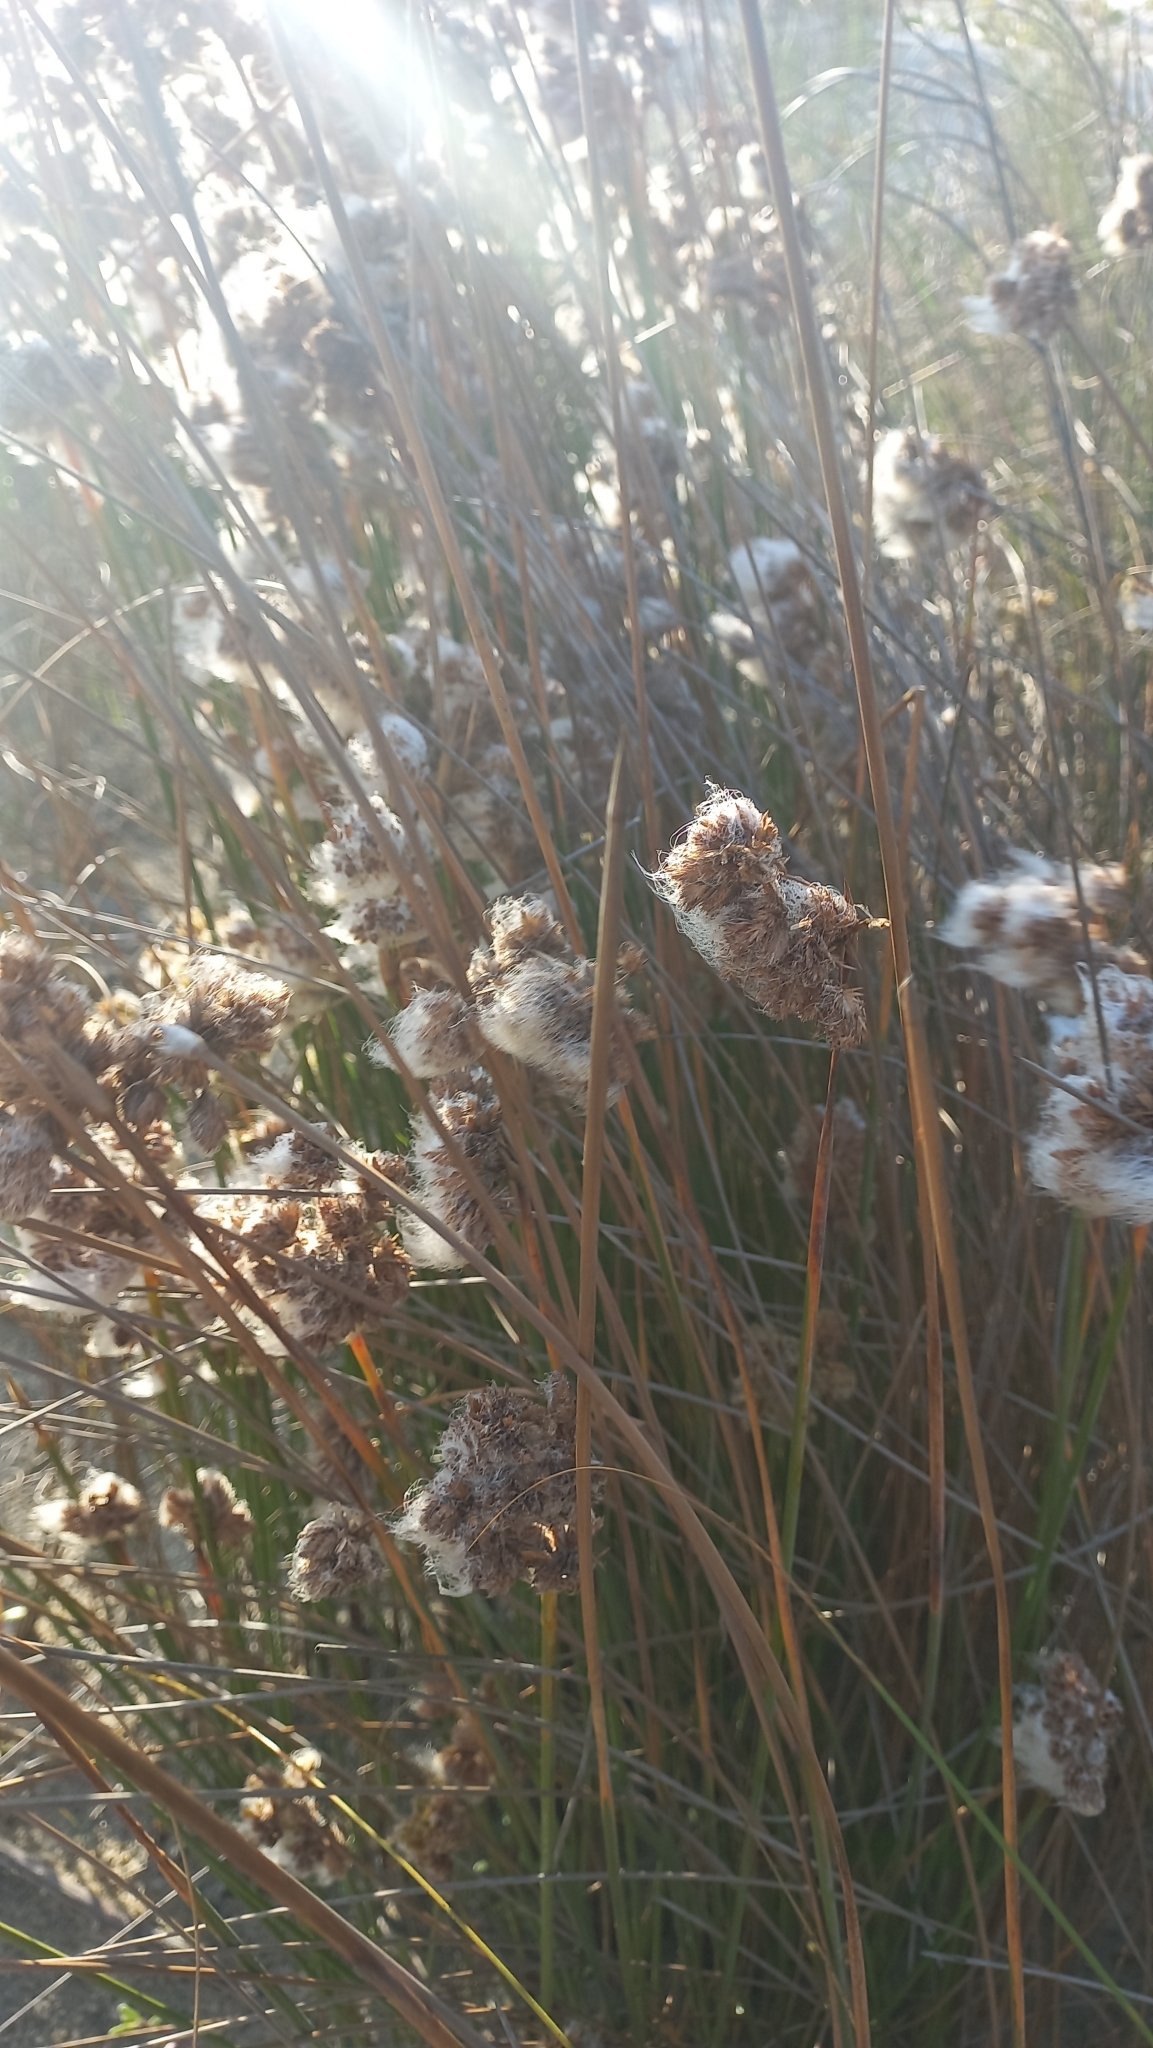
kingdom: Plantae
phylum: Tracheophyta
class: Liliopsida
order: Poales
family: Cyperaceae
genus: Cyperus
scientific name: Cyperus trigynus
